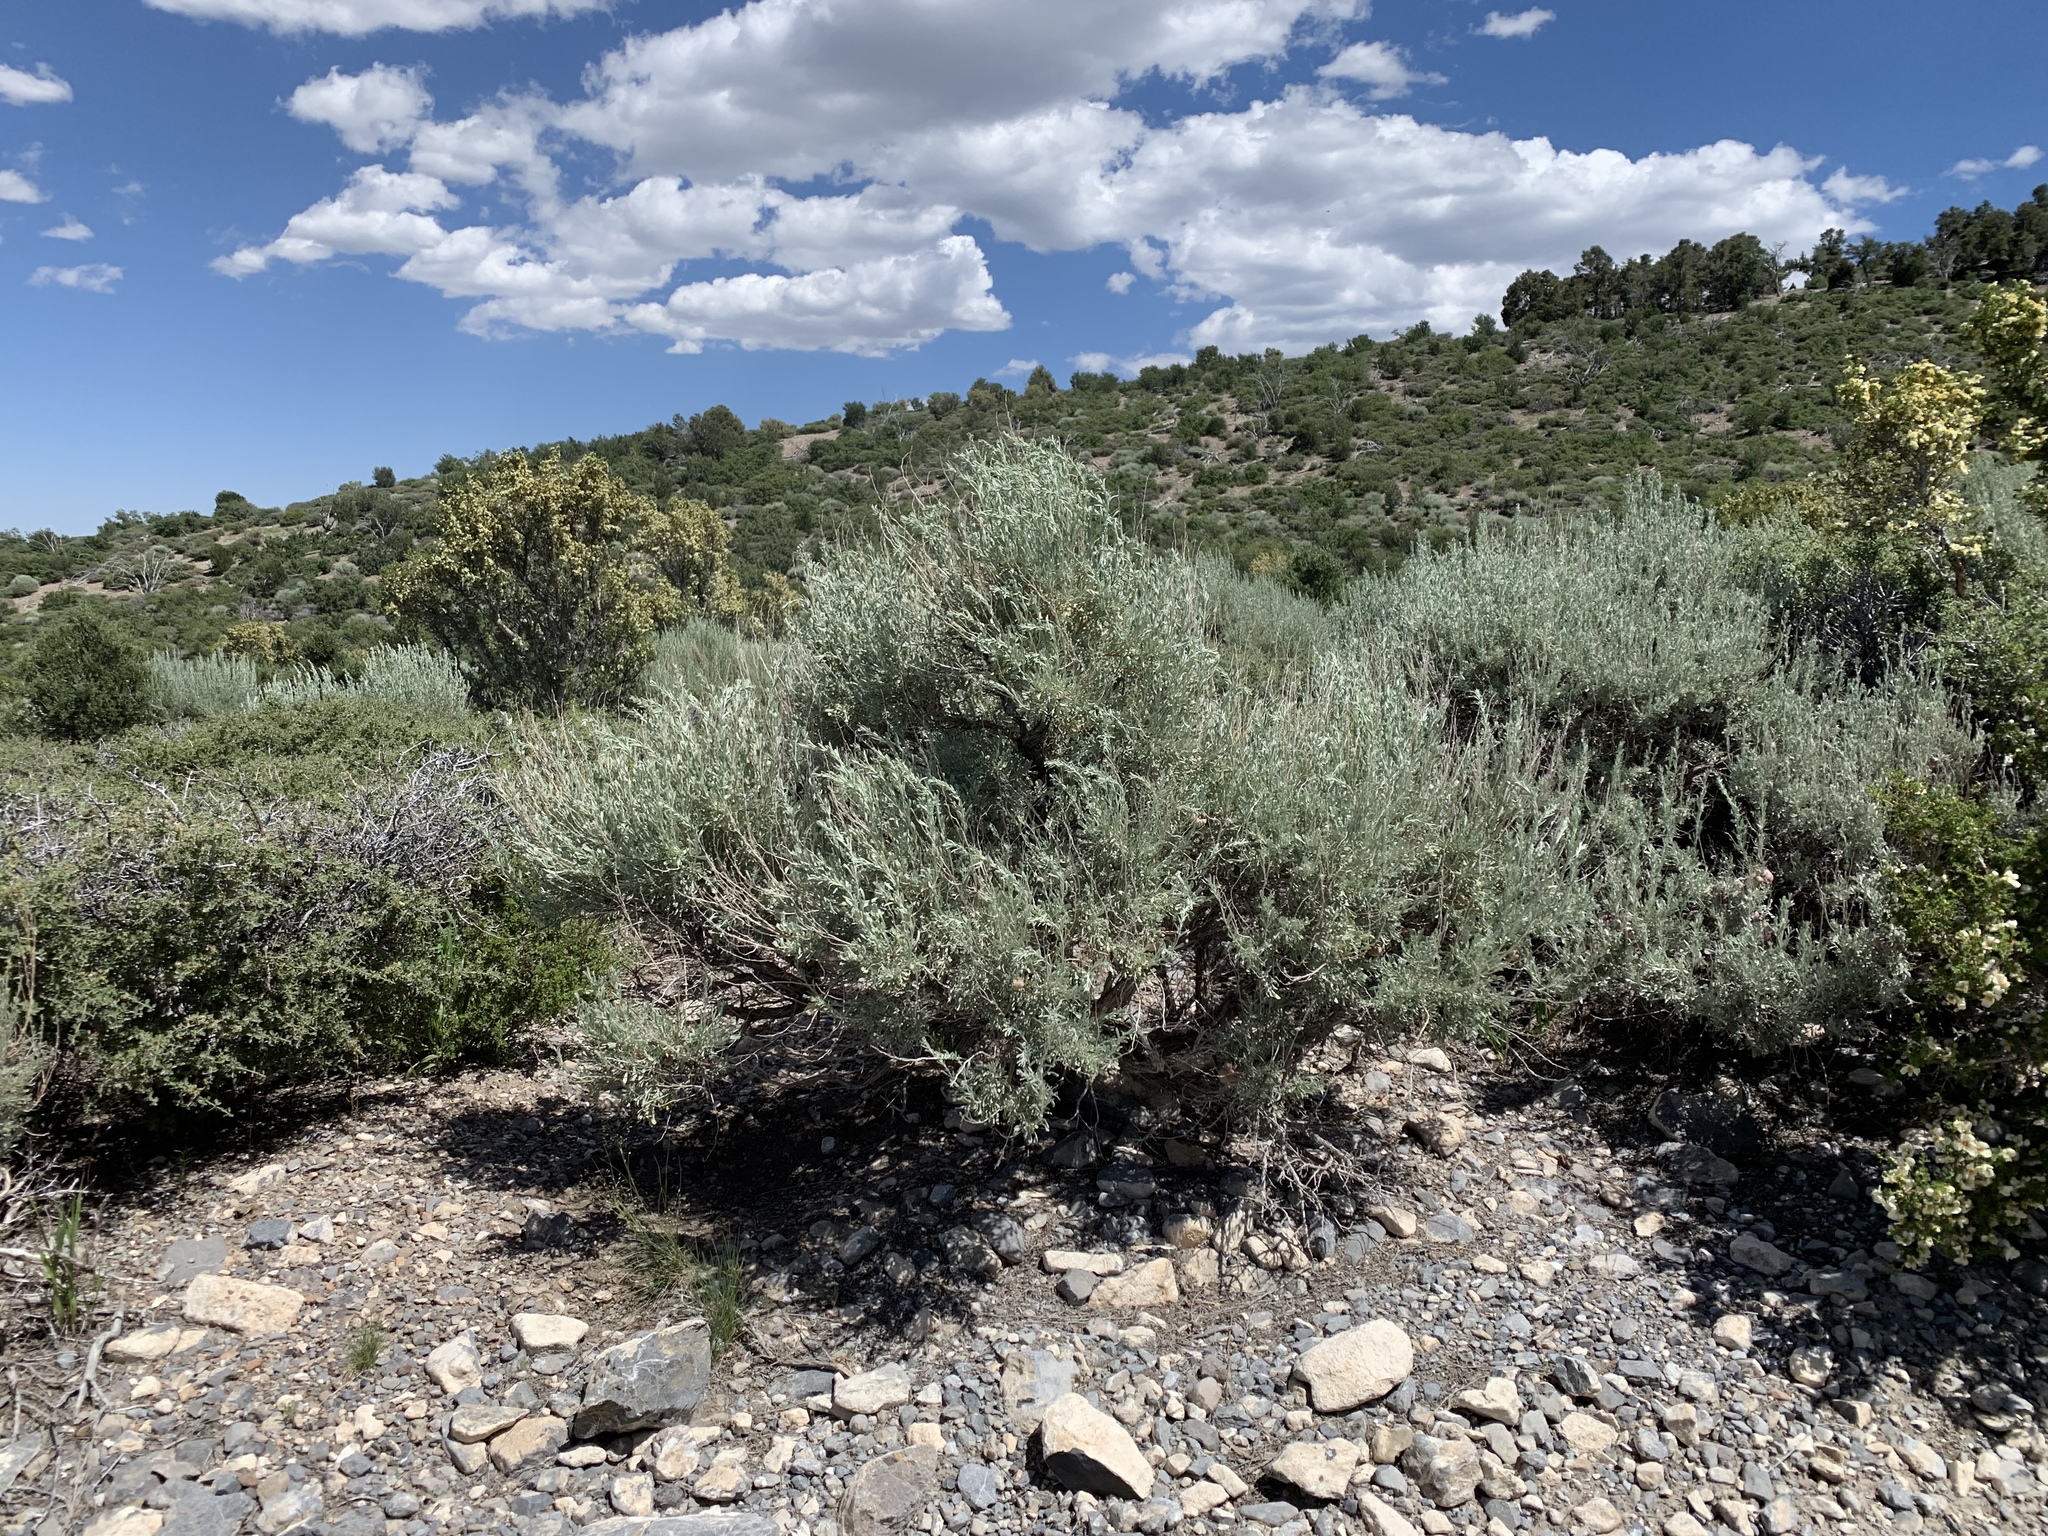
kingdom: Plantae
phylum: Tracheophyta
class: Magnoliopsida
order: Asterales
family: Asteraceae
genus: Artemisia
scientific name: Artemisia tridentata
